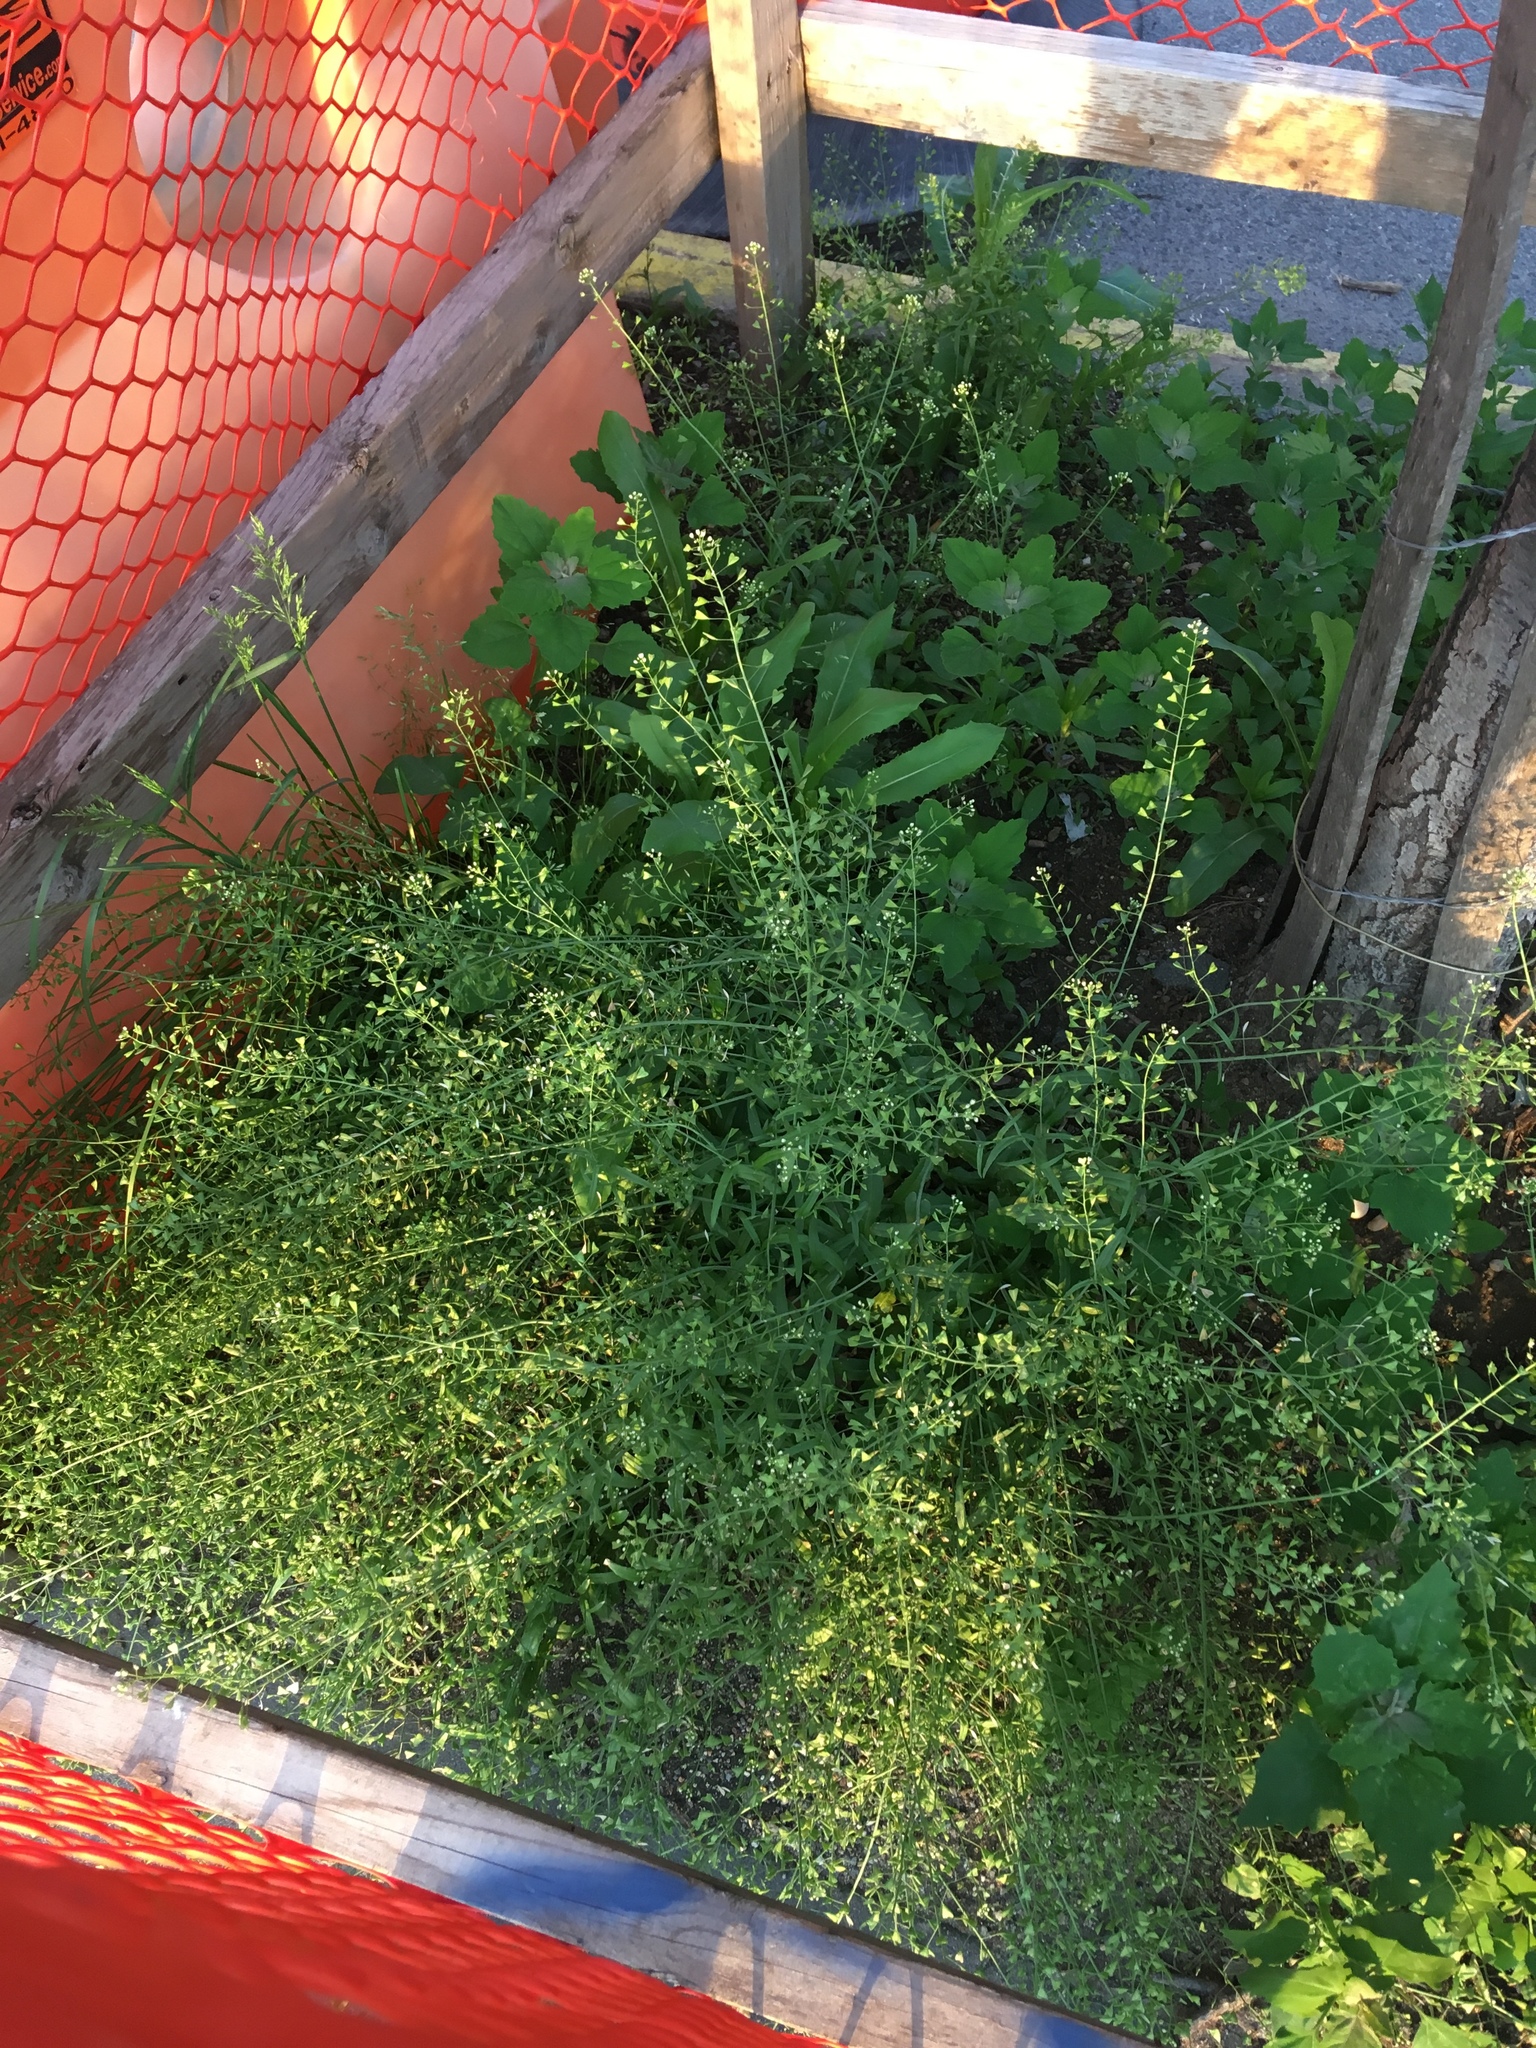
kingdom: Plantae
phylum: Tracheophyta
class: Magnoliopsida
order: Brassicales
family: Brassicaceae
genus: Capsella
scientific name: Capsella bursa-pastoris
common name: Shepherd's purse
